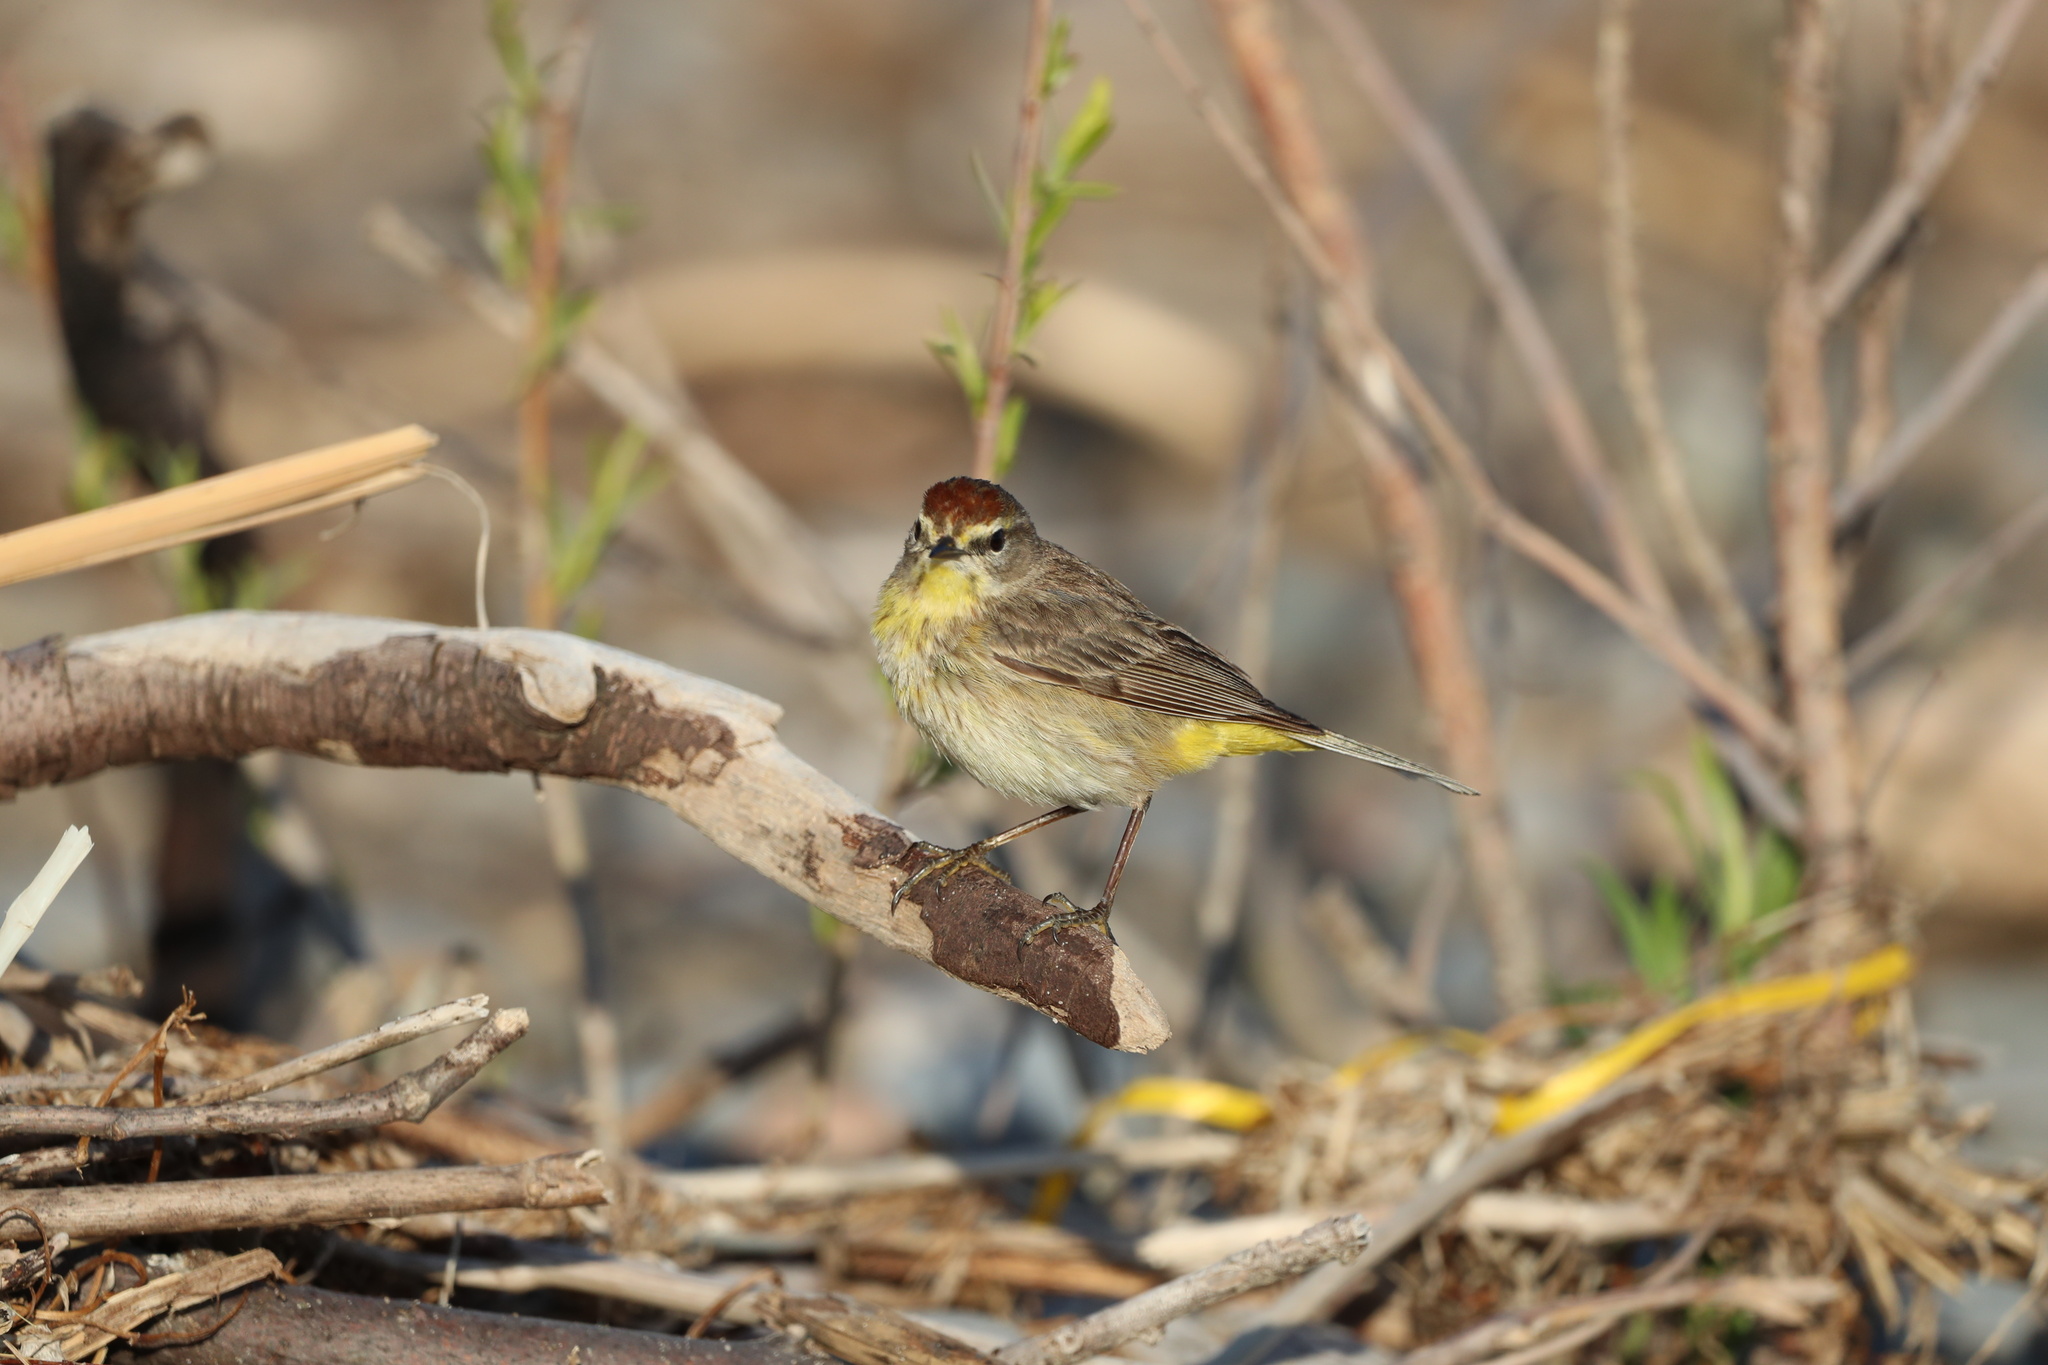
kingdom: Animalia
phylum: Chordata
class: Aves
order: Passeriformes
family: Parulidae
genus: Setophaga
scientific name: Setophaga palmarum
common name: Palm warbler
